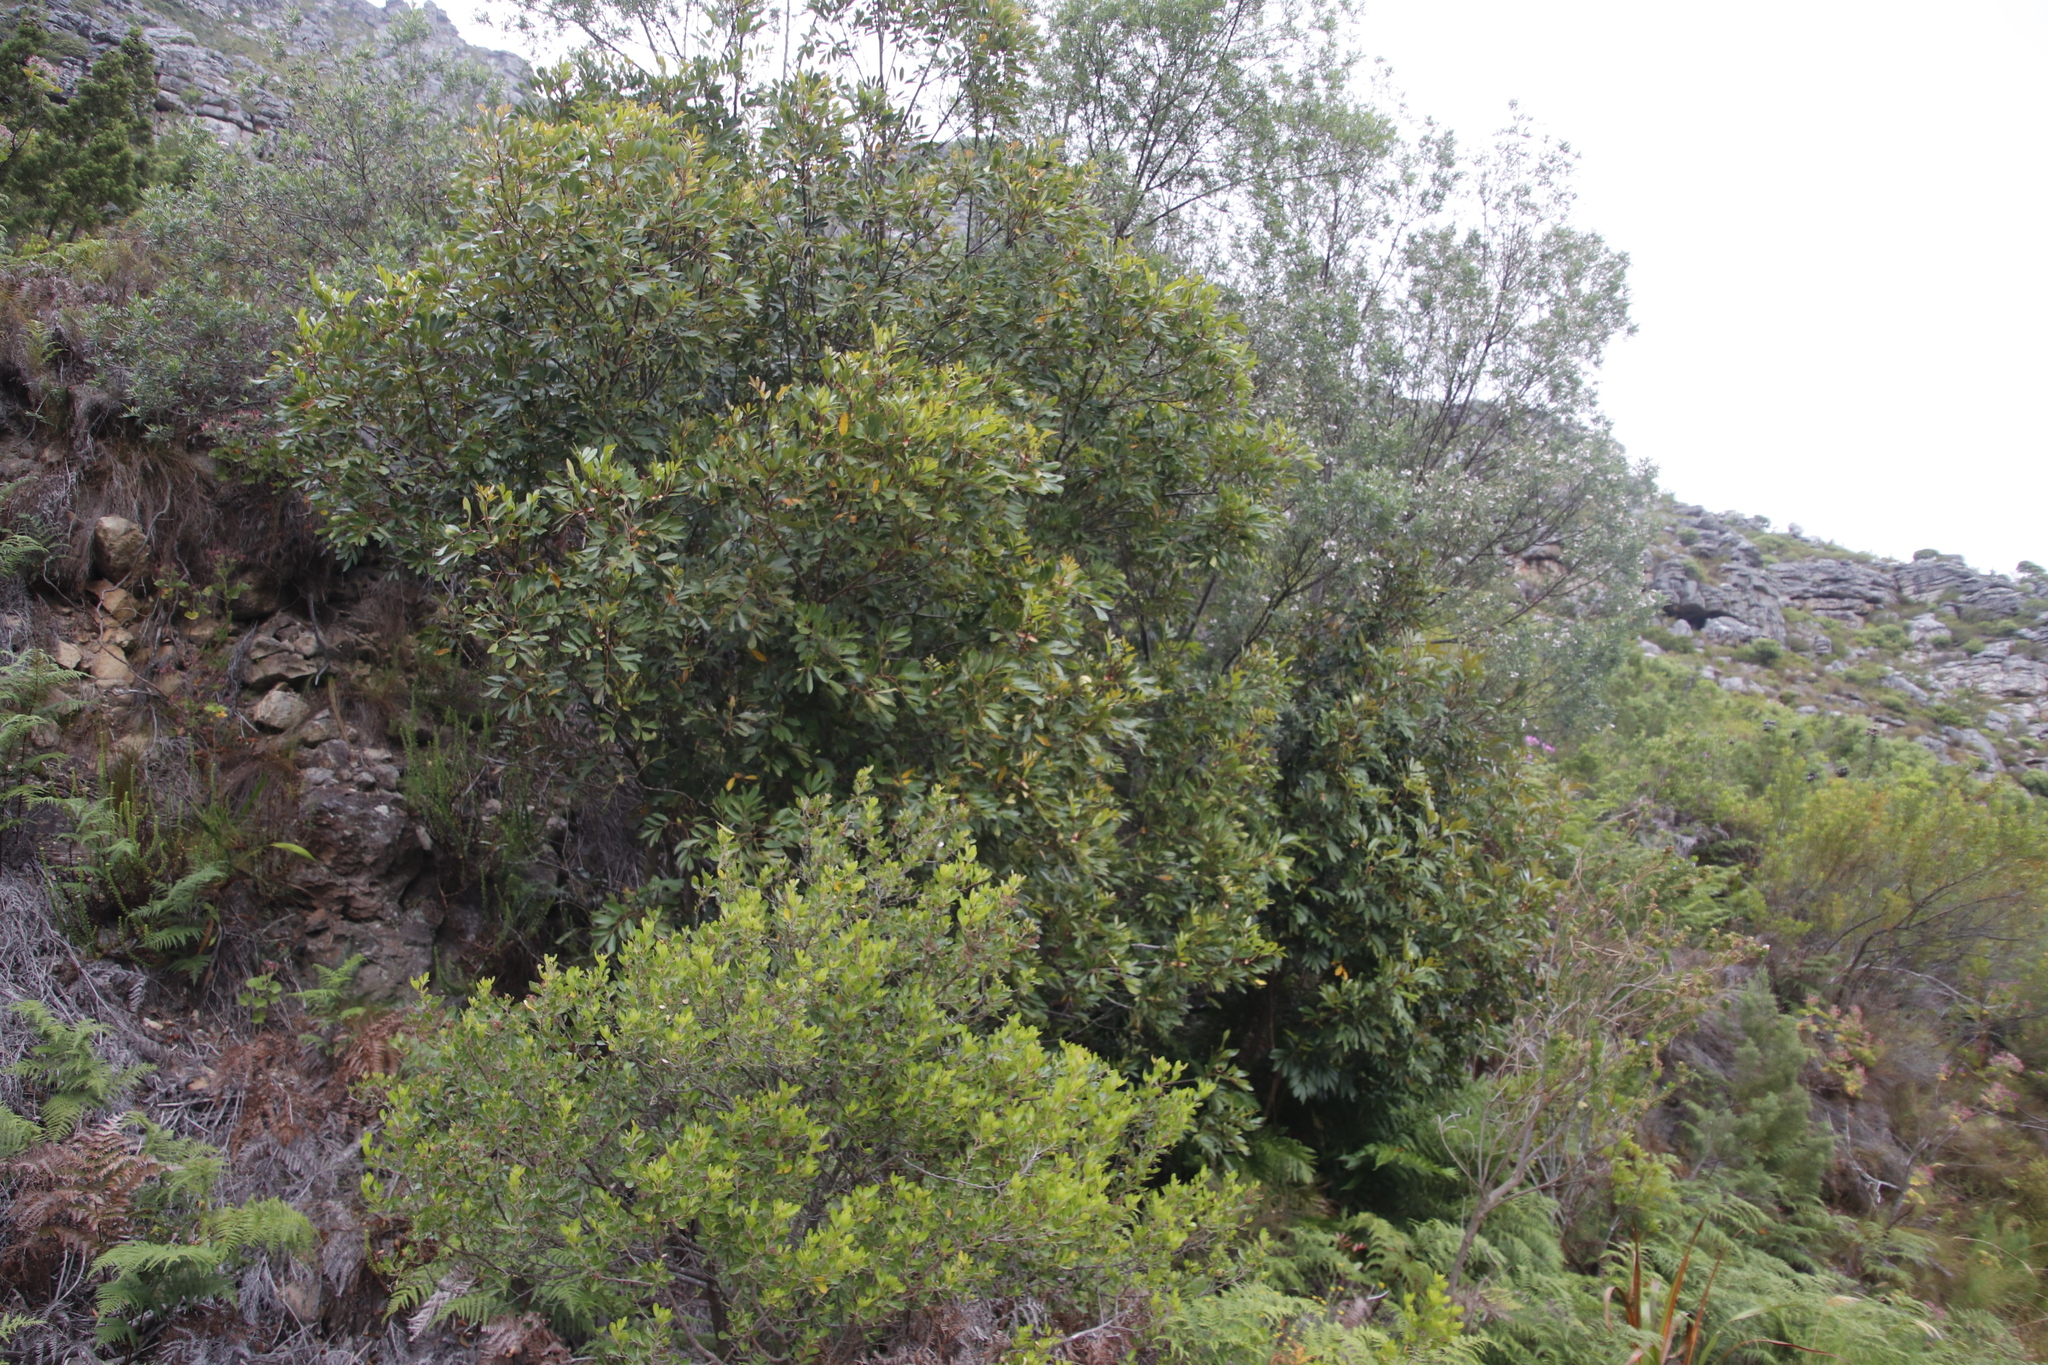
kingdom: Plantae
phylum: Tracheophyta
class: Magnoliopsida
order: Oxalidales
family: Cunoniaceae
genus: Cunonia
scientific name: Cunonia capensis
